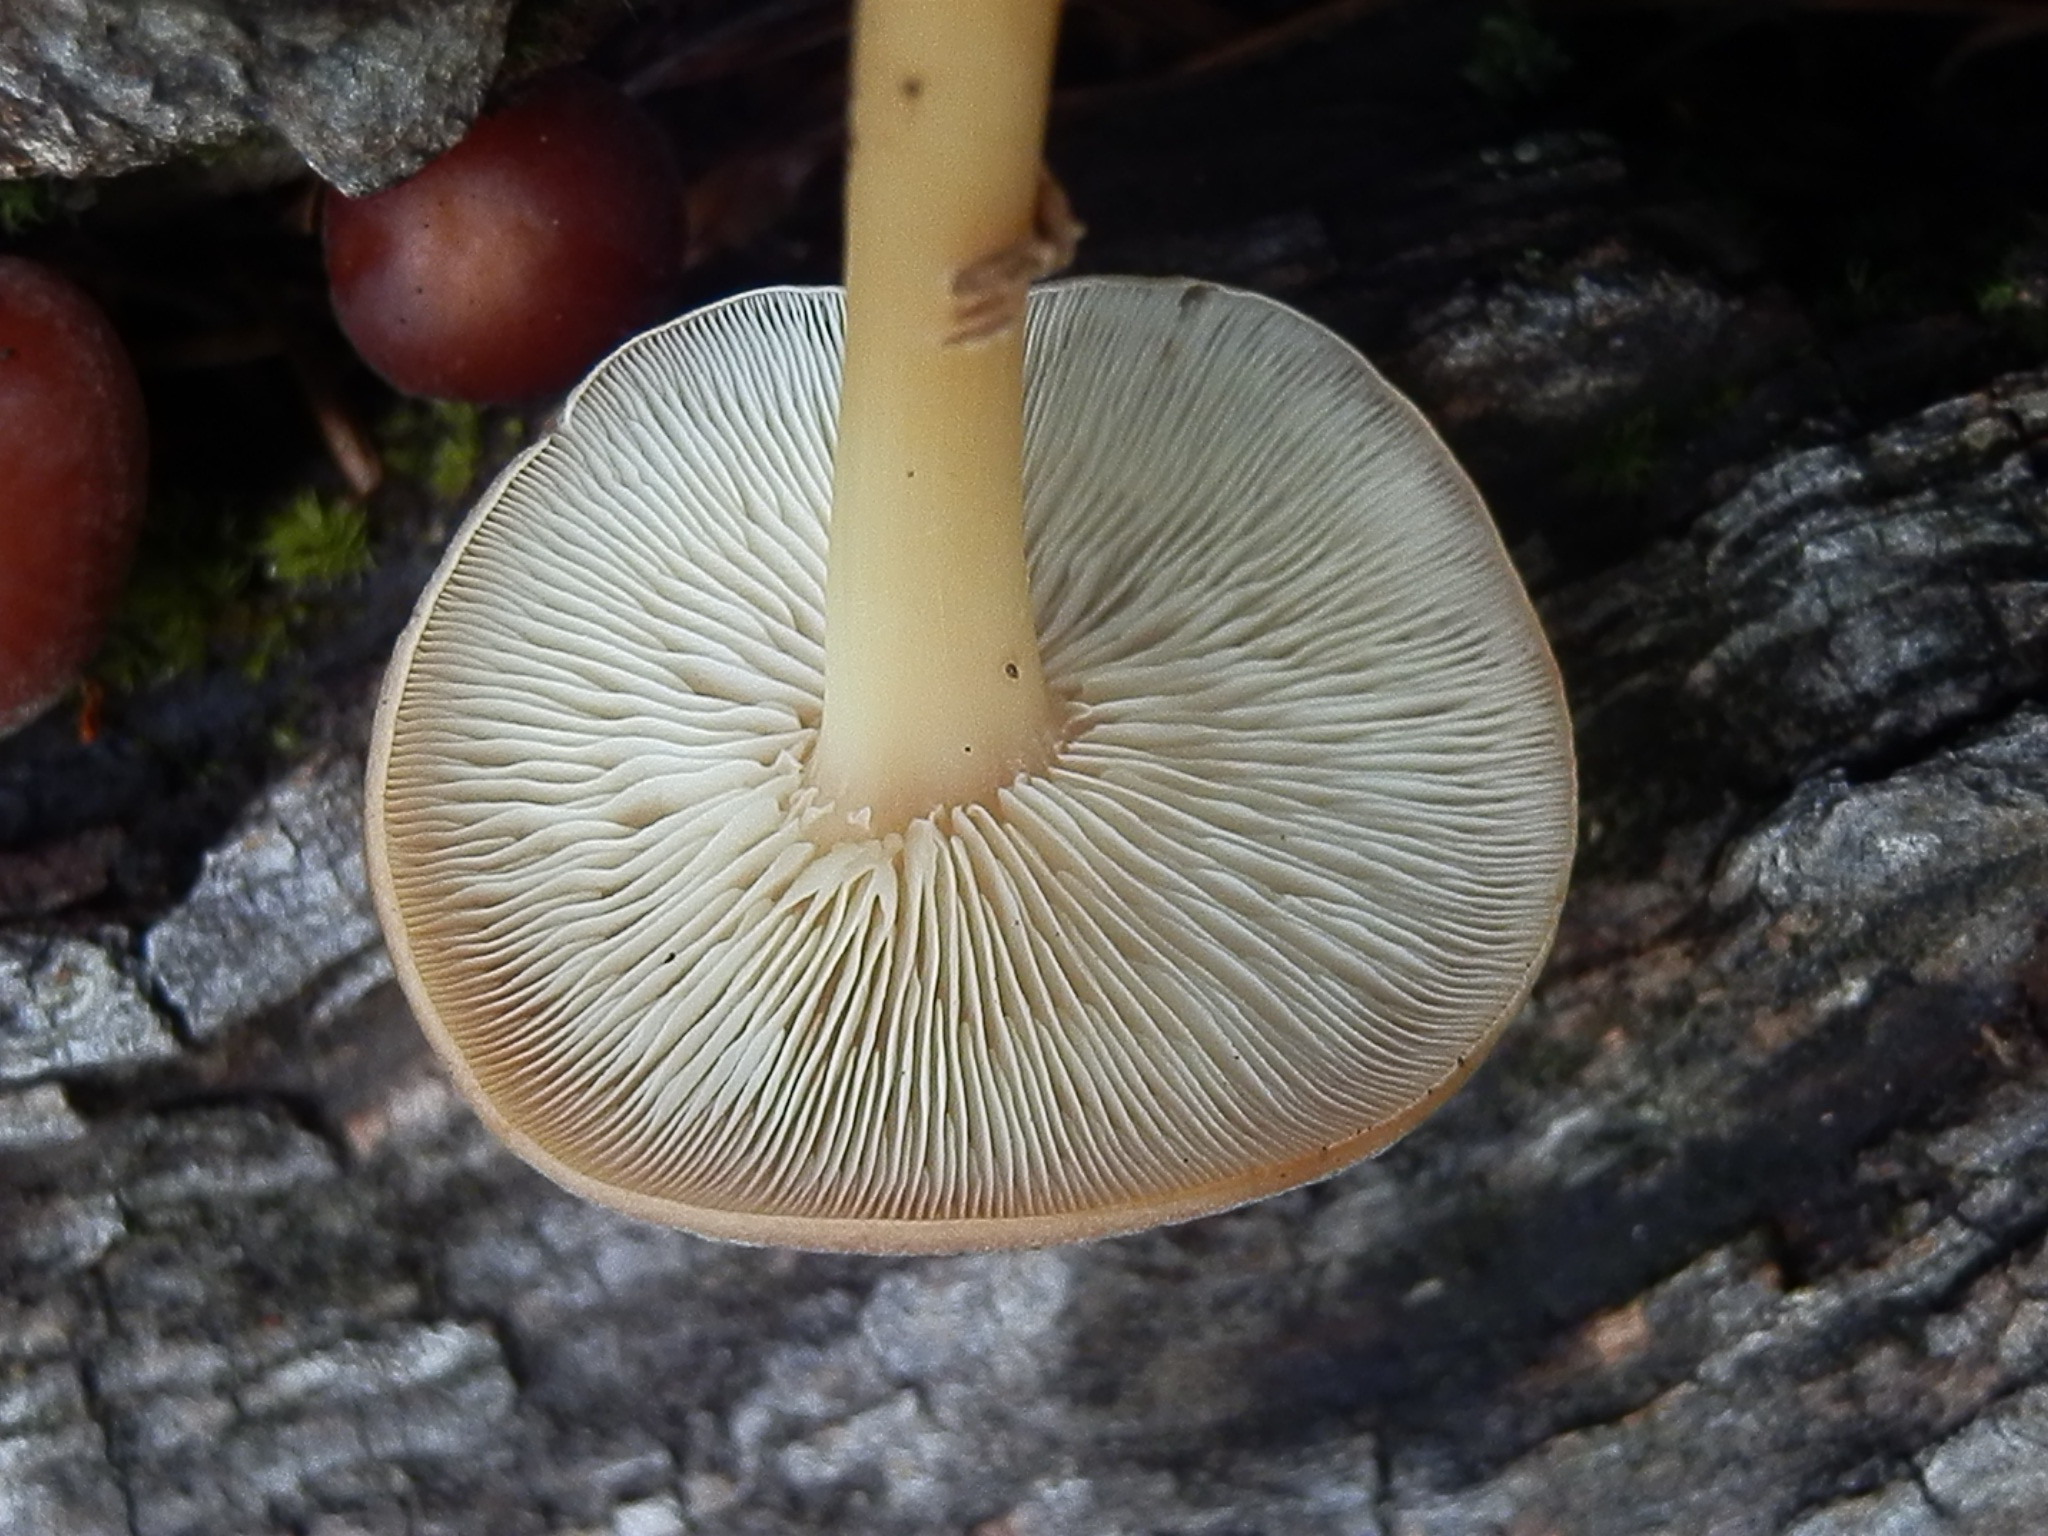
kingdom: Fungi
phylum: Basidiomycota
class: Agaricomycetes
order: Agaricales
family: Omphalotaceae
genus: Gymnopus
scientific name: Gymnopus dryophilus
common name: Penny top
